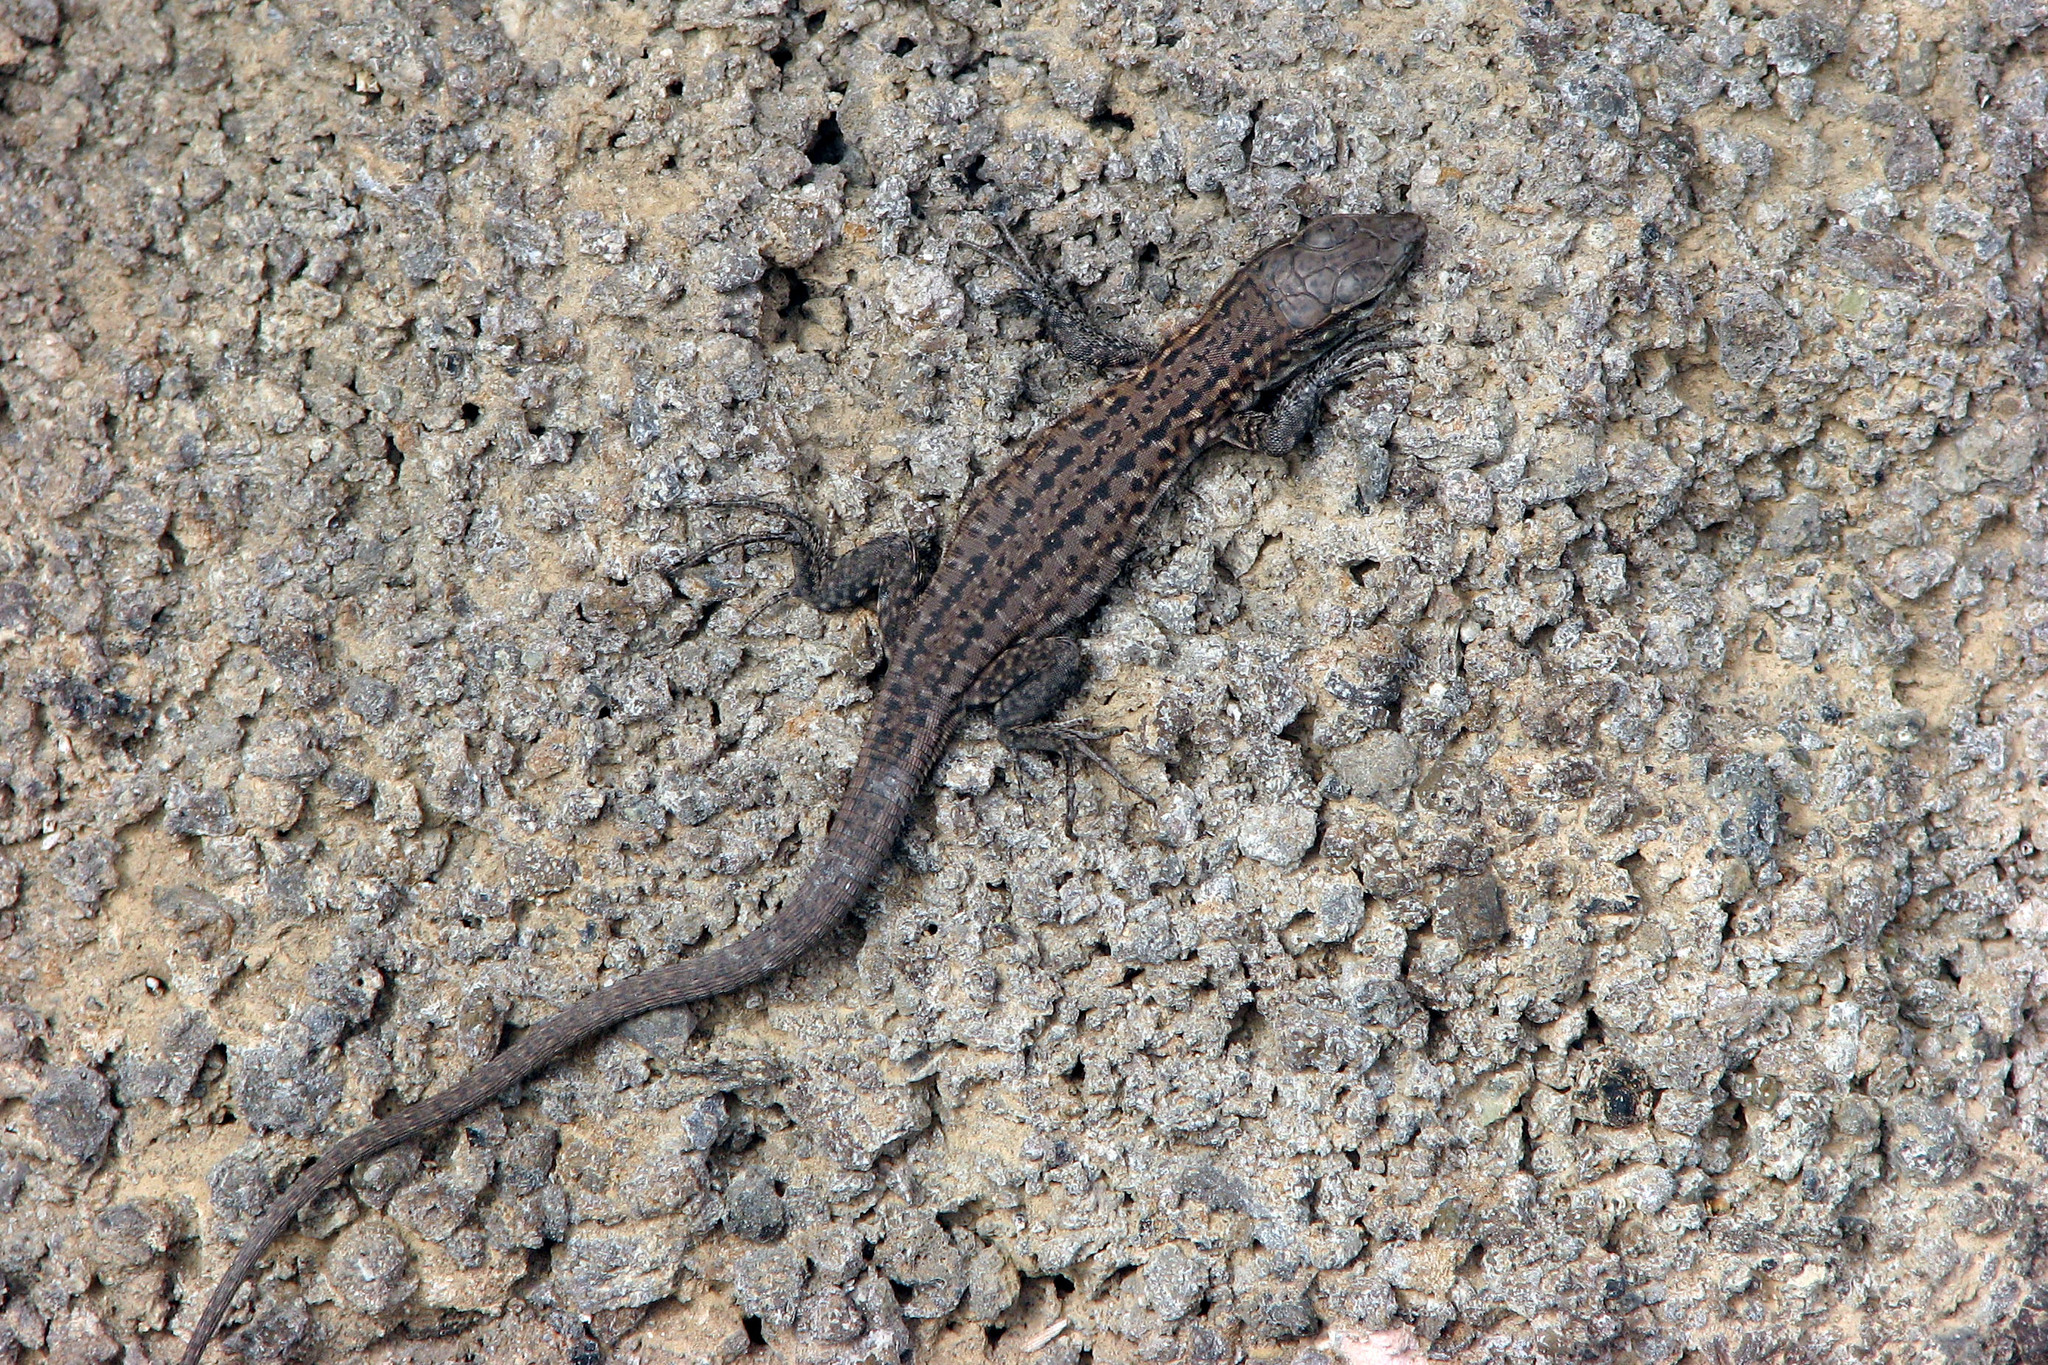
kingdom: Animalia
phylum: Chordata
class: Squamata
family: Lacertidae
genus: Gallotia
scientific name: Gallotia stehlini
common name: Gran canaria giant lizard
